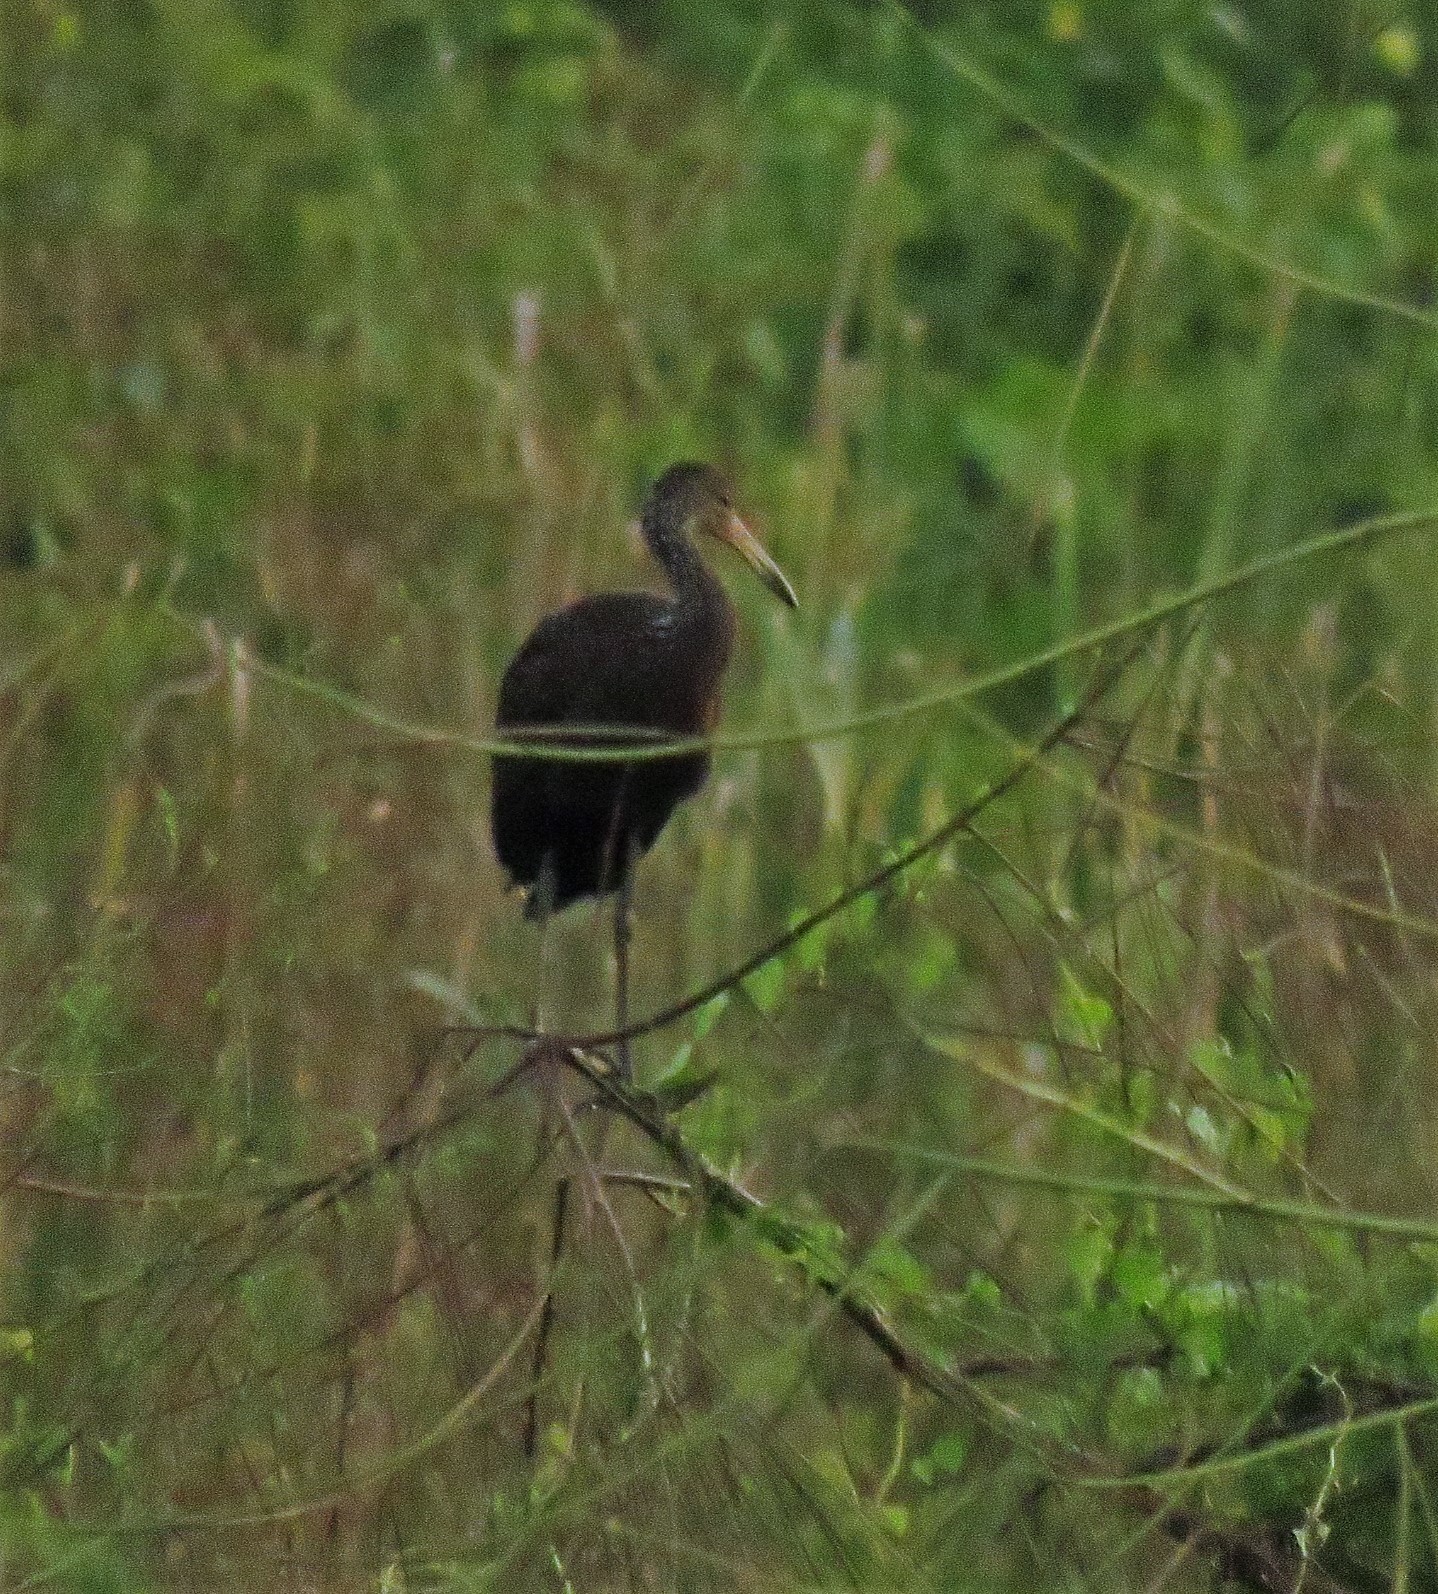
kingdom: Animalia
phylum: Chordata
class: Aves
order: Gruiformes
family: Aramidae
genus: Aramus
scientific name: Aramus guarauna
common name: Limpkin
